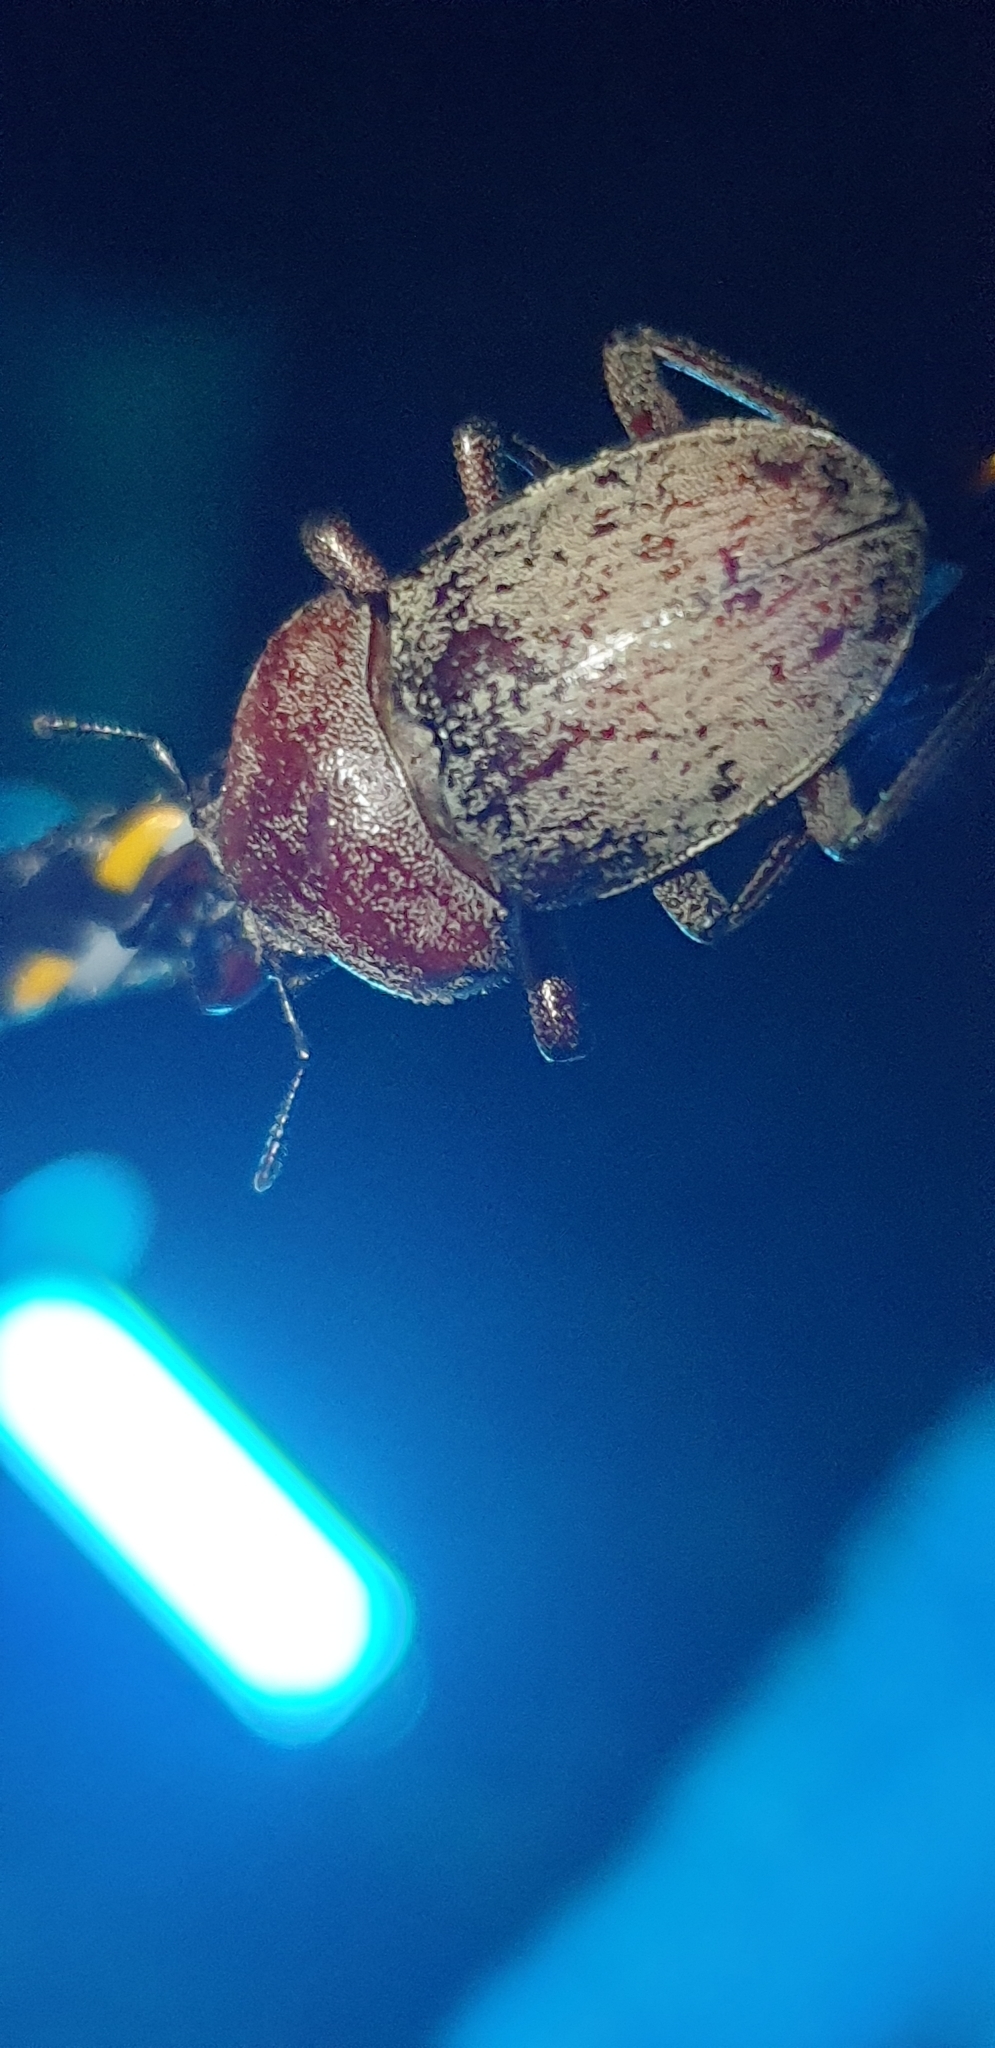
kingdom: Animalia
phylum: Arthropoda
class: Insecta
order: Coleoptera
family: Lucanidae
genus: Cacostomus
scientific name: Cacostomus squamosus
